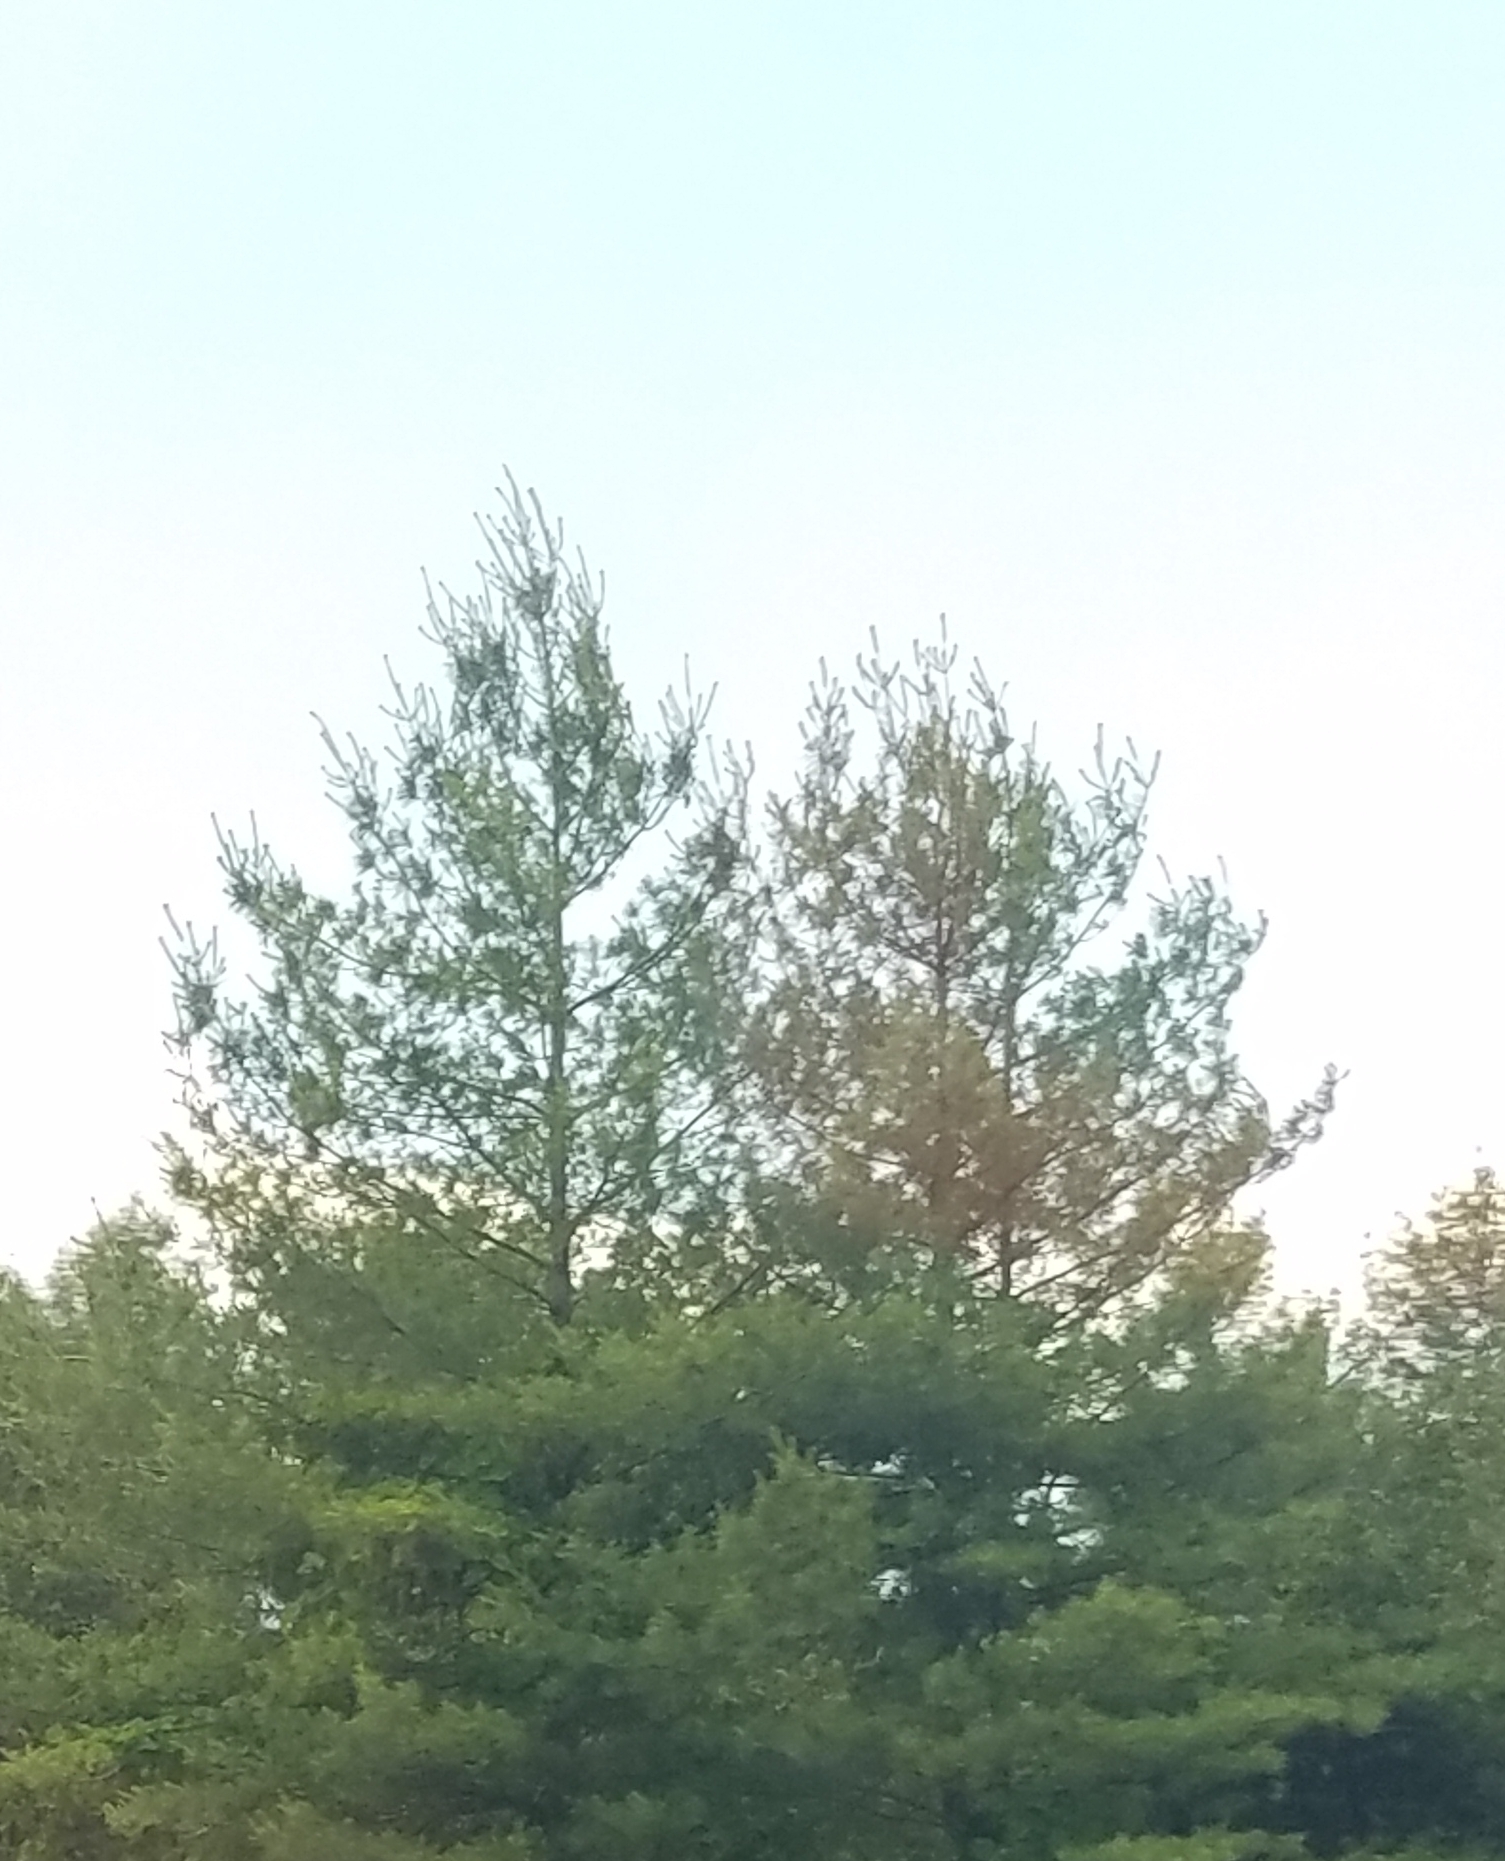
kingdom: Plantae
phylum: Tracheophyta
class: Pinopsida
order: Pinales
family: Pinaceae
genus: Pinus
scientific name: Pinus strobus
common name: Weymouth pine
